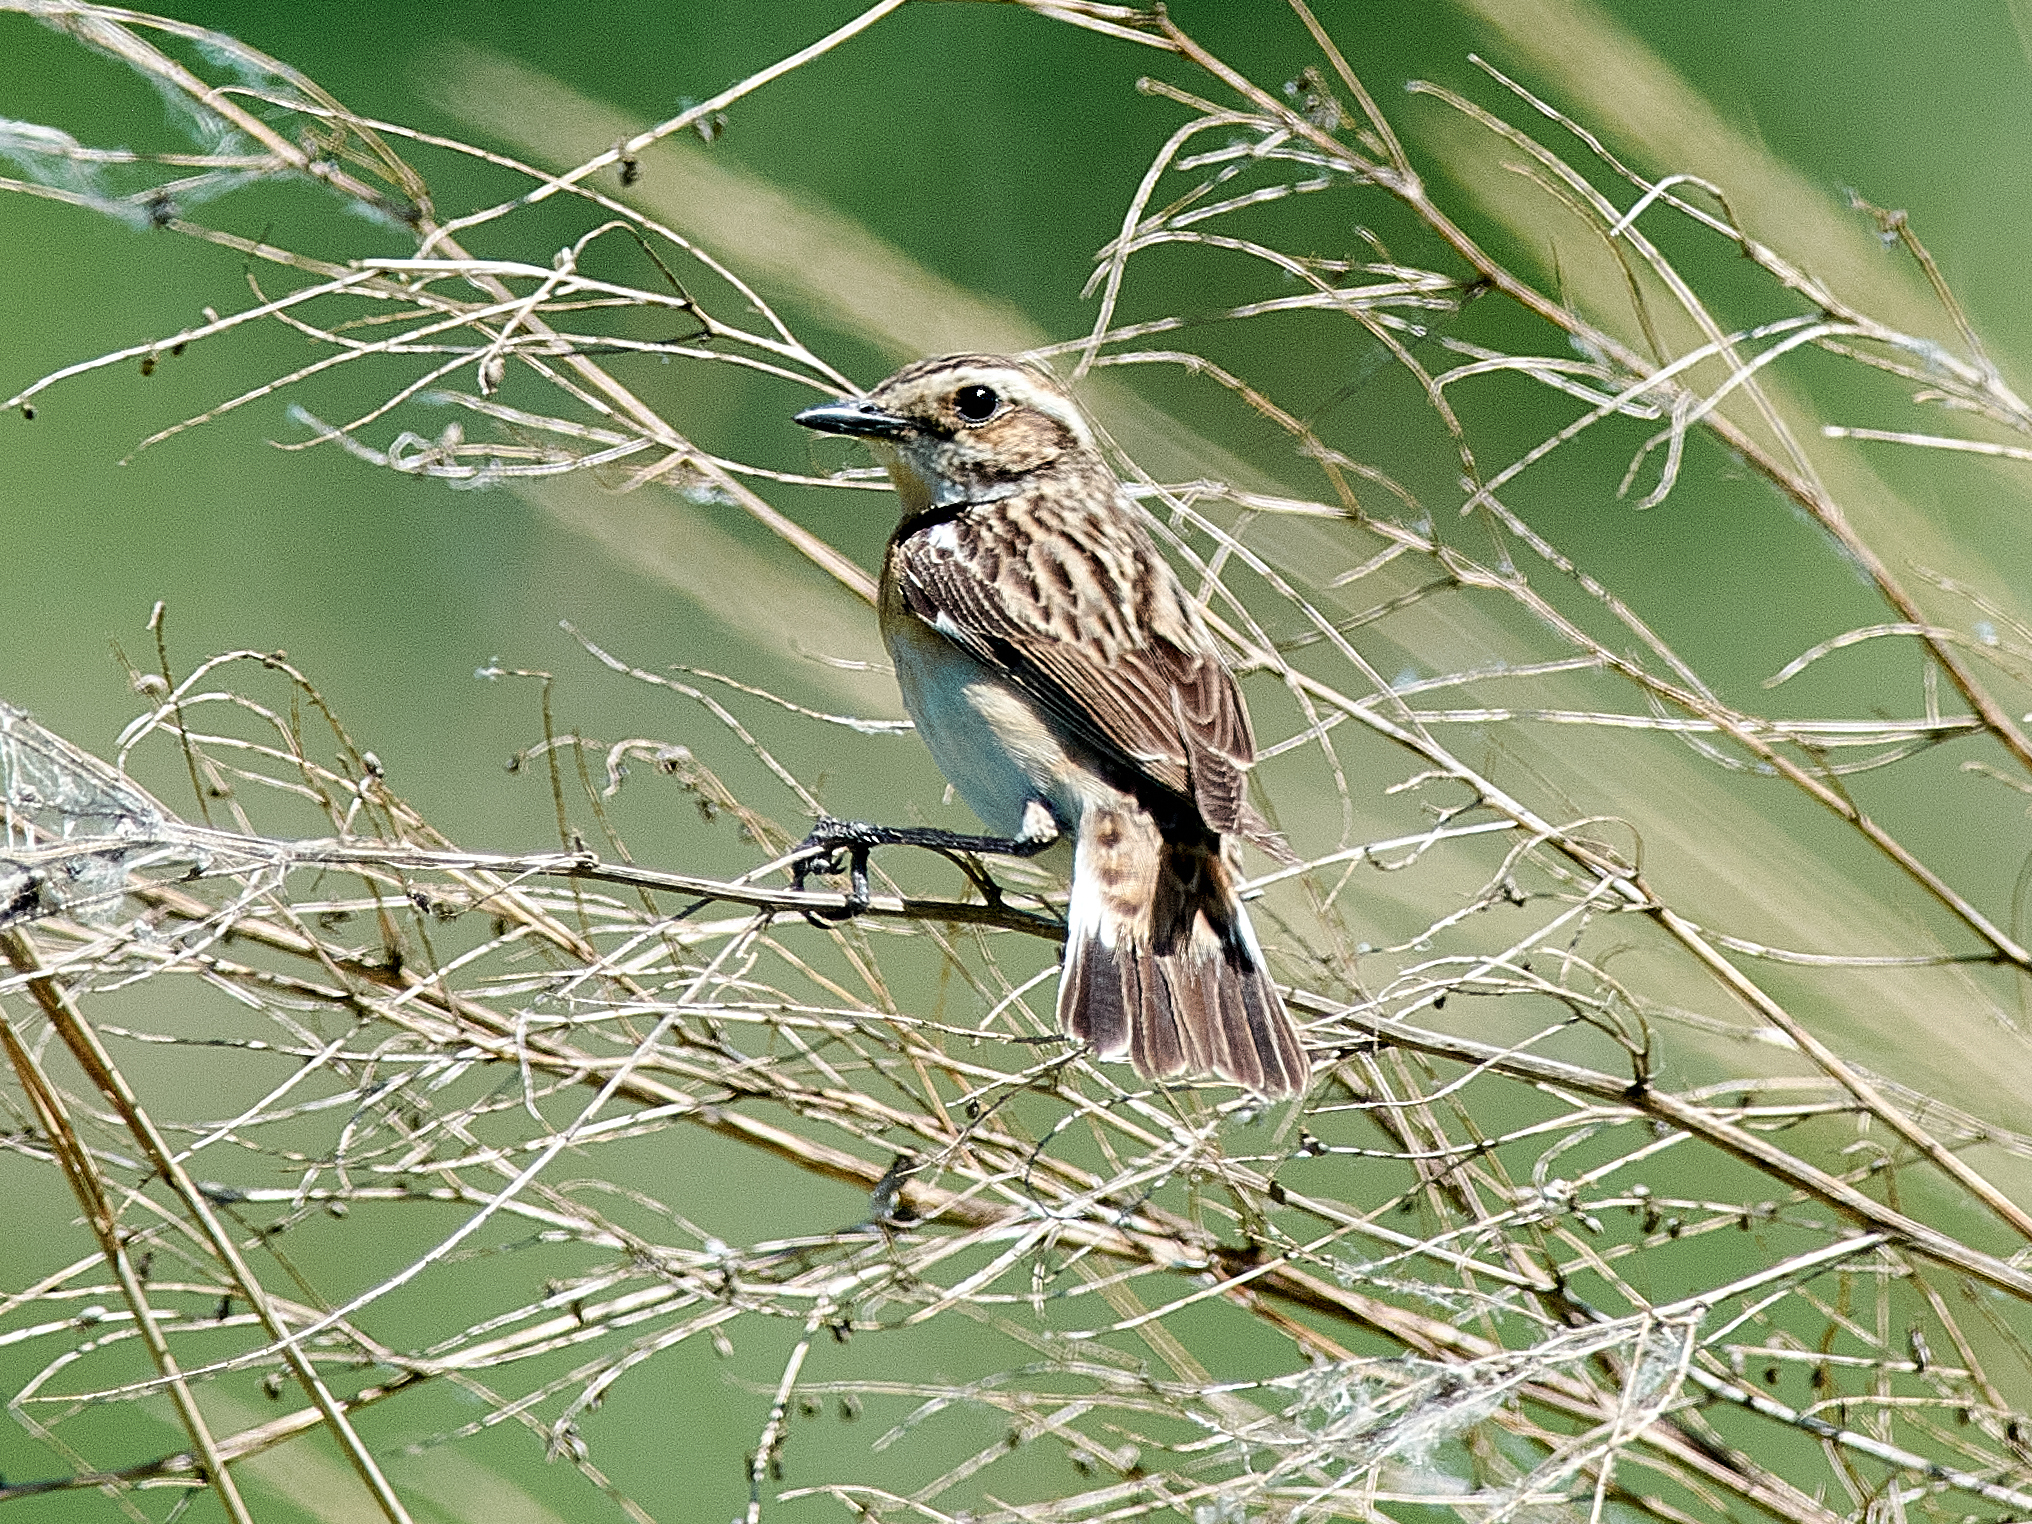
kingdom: Animalia
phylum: Chordata
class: Aves
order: Passeriformes
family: Muscicapidae
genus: Saxicola
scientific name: Saxicola rubetra
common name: Whinchat
